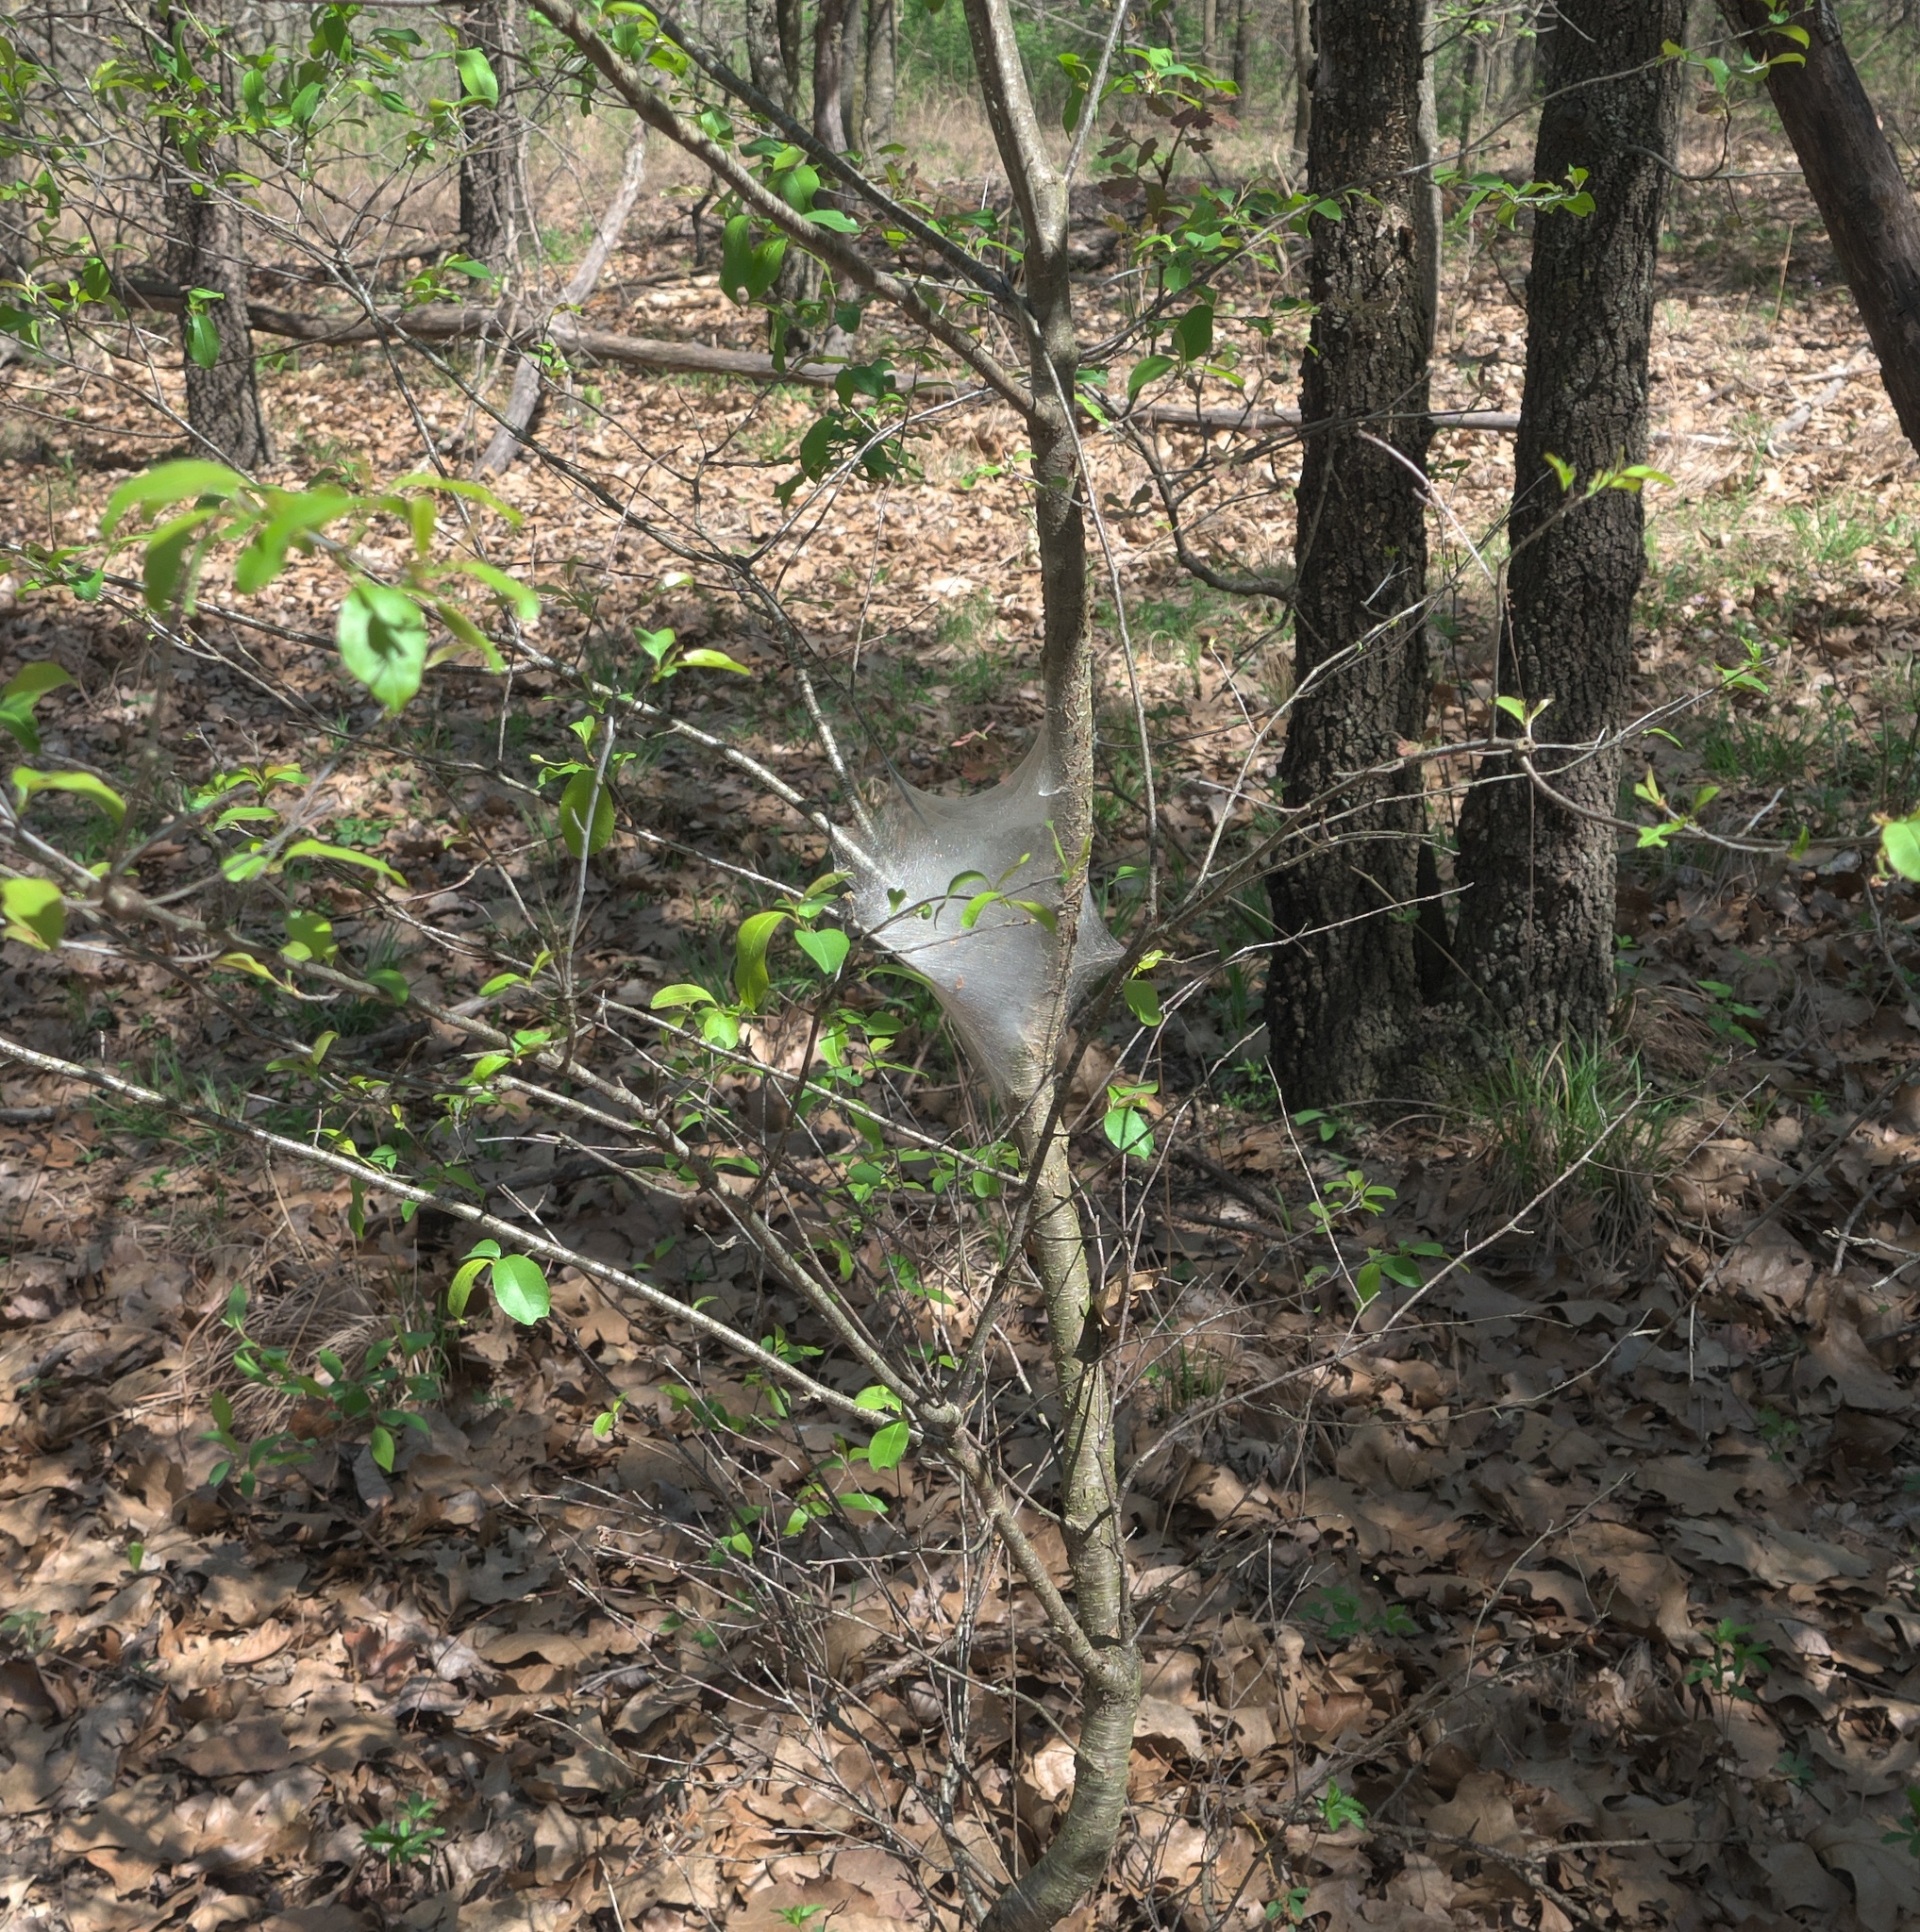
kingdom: Animalia
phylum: Arthropoda
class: Insecta
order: Lepidoptera
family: Lasiocampidae
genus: Malacosoma
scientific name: Malacosoma americana
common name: Eastern tent caterpillar moth
